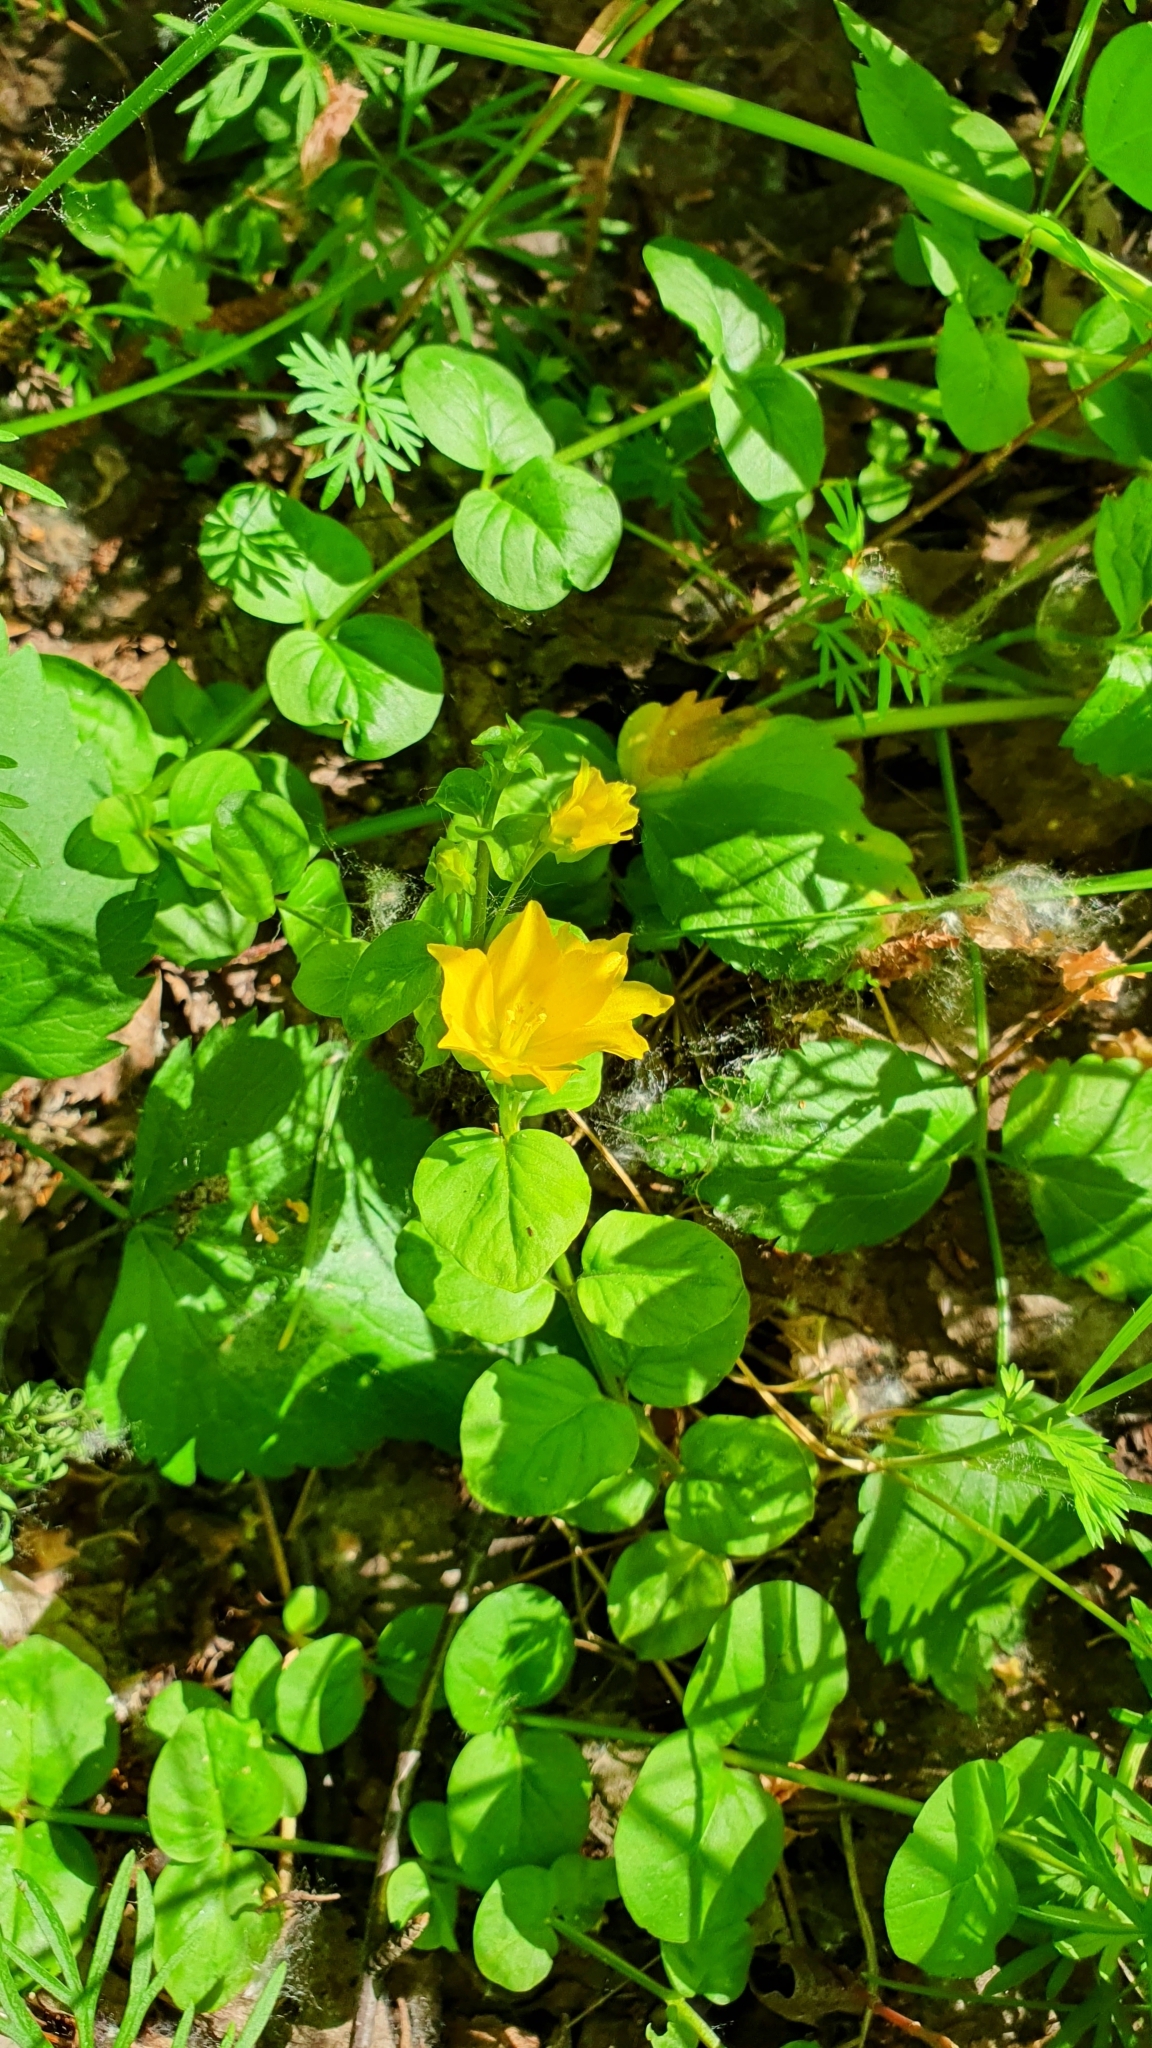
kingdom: Plantae
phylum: Tracheophyta
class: Magnoliopsida
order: Ericales
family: Primulaceae
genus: Lysimachia
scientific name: Lysimachia nummularia
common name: Moneywort
